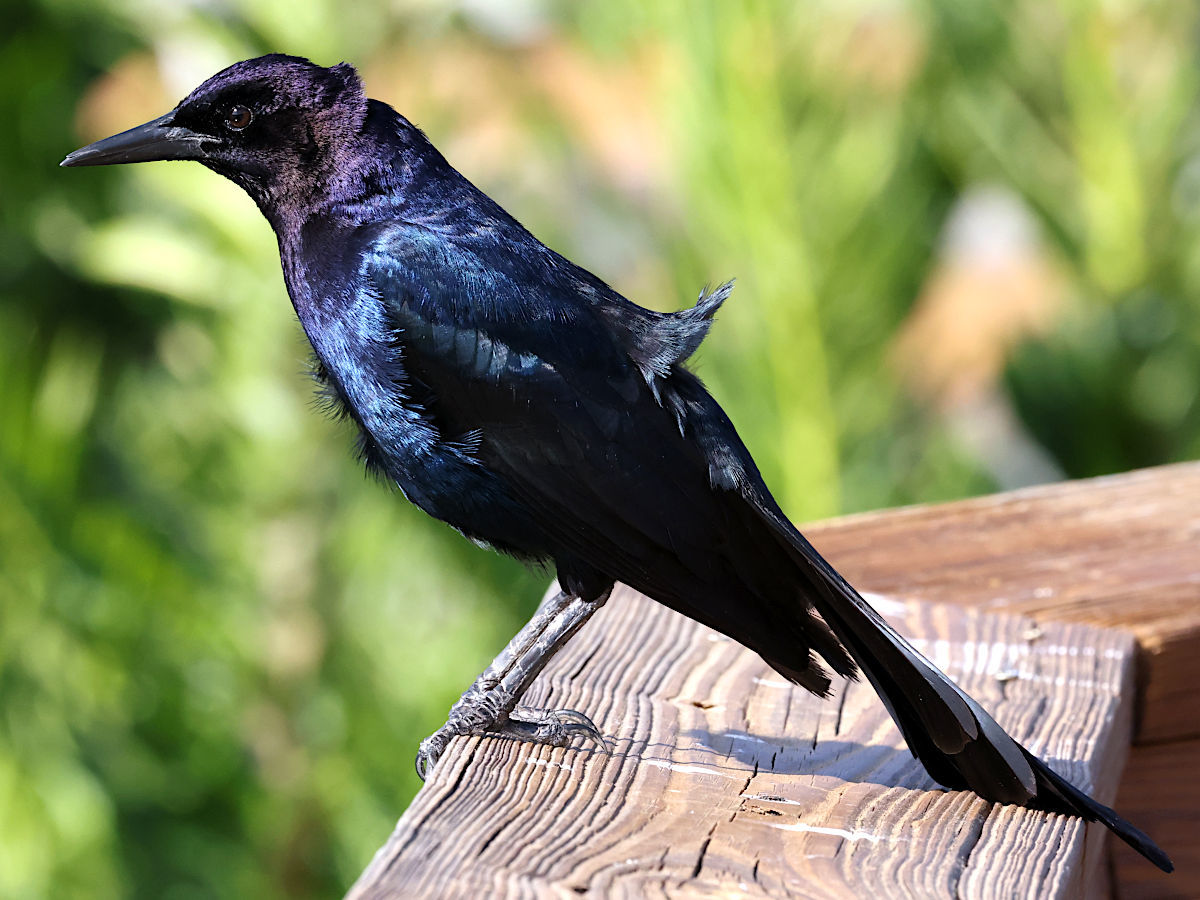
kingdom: Animalia
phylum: Chordata
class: Aves
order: Passeriformes
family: Icteridae
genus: Quiscalus
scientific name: Quiscalus major
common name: Boat-tailed grackle
